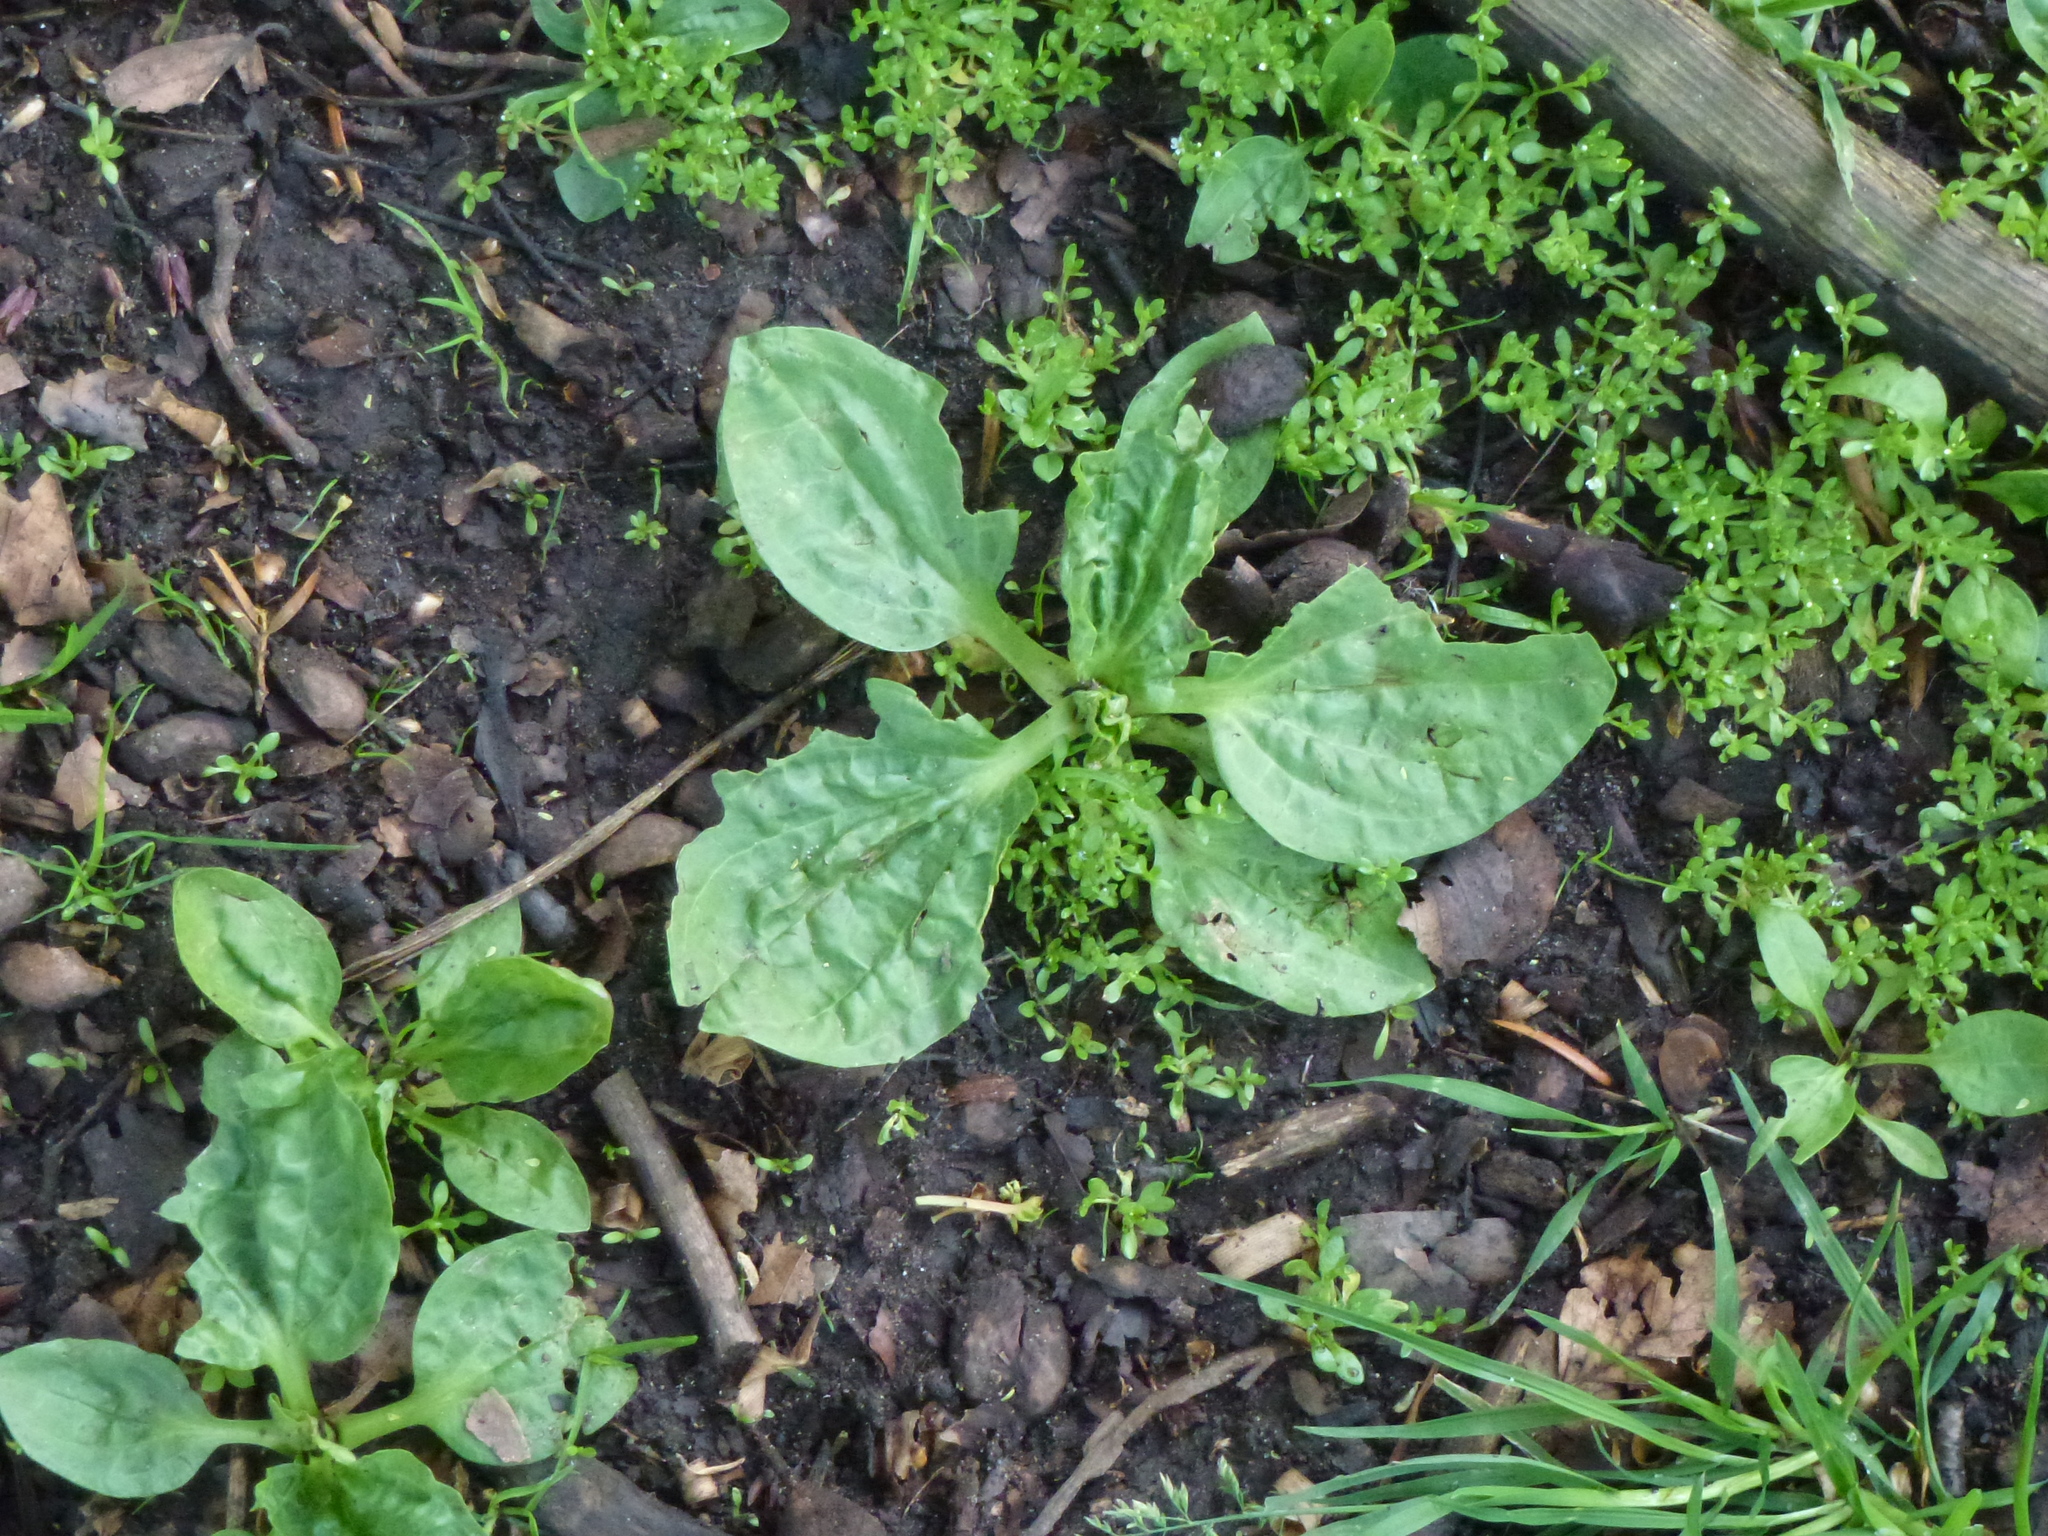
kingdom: Plantae
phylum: Tracheophyta
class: Magnoliopsida
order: Lamiales
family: Plantaginaceae
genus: Plantago
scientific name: Plantago major
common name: Common plantain
